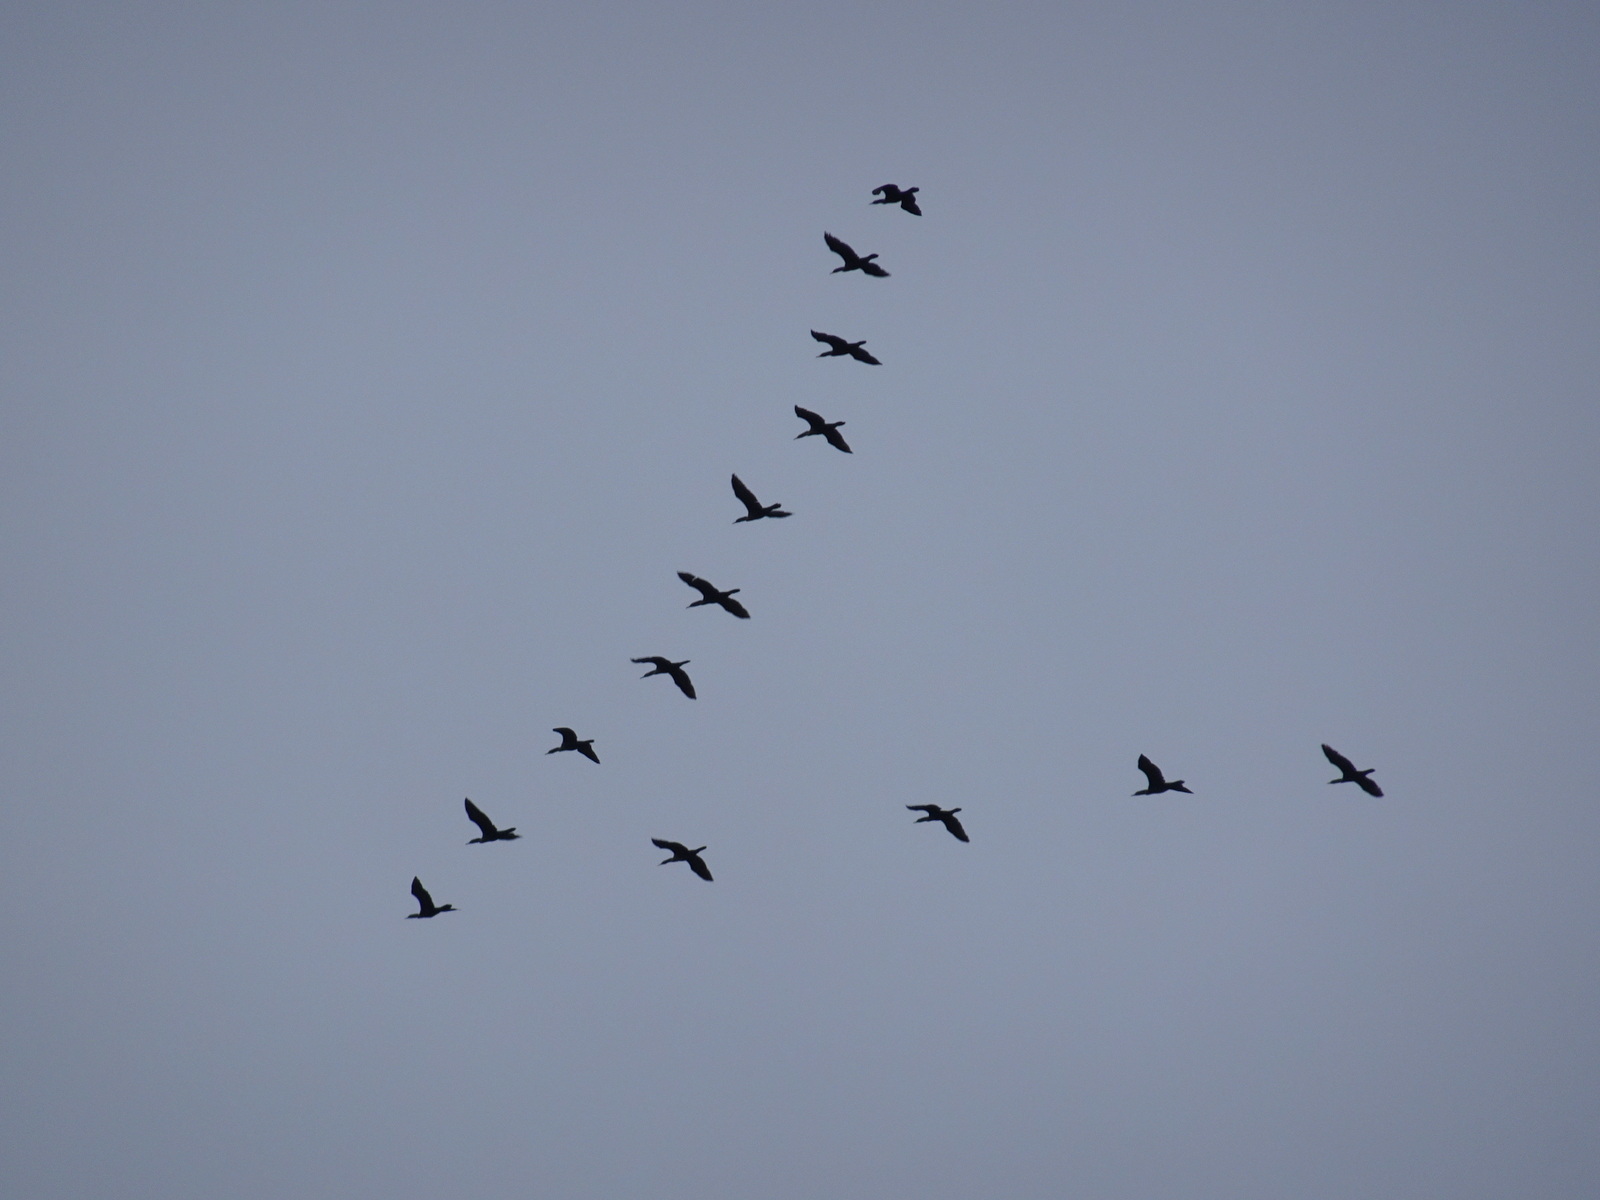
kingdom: Animalia
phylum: Chordata
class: Aves
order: Suliformes
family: Phalacrocoracidae
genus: Phalacrocorax
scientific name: Phalacrocorax auritus
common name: Double-crested cormorant
